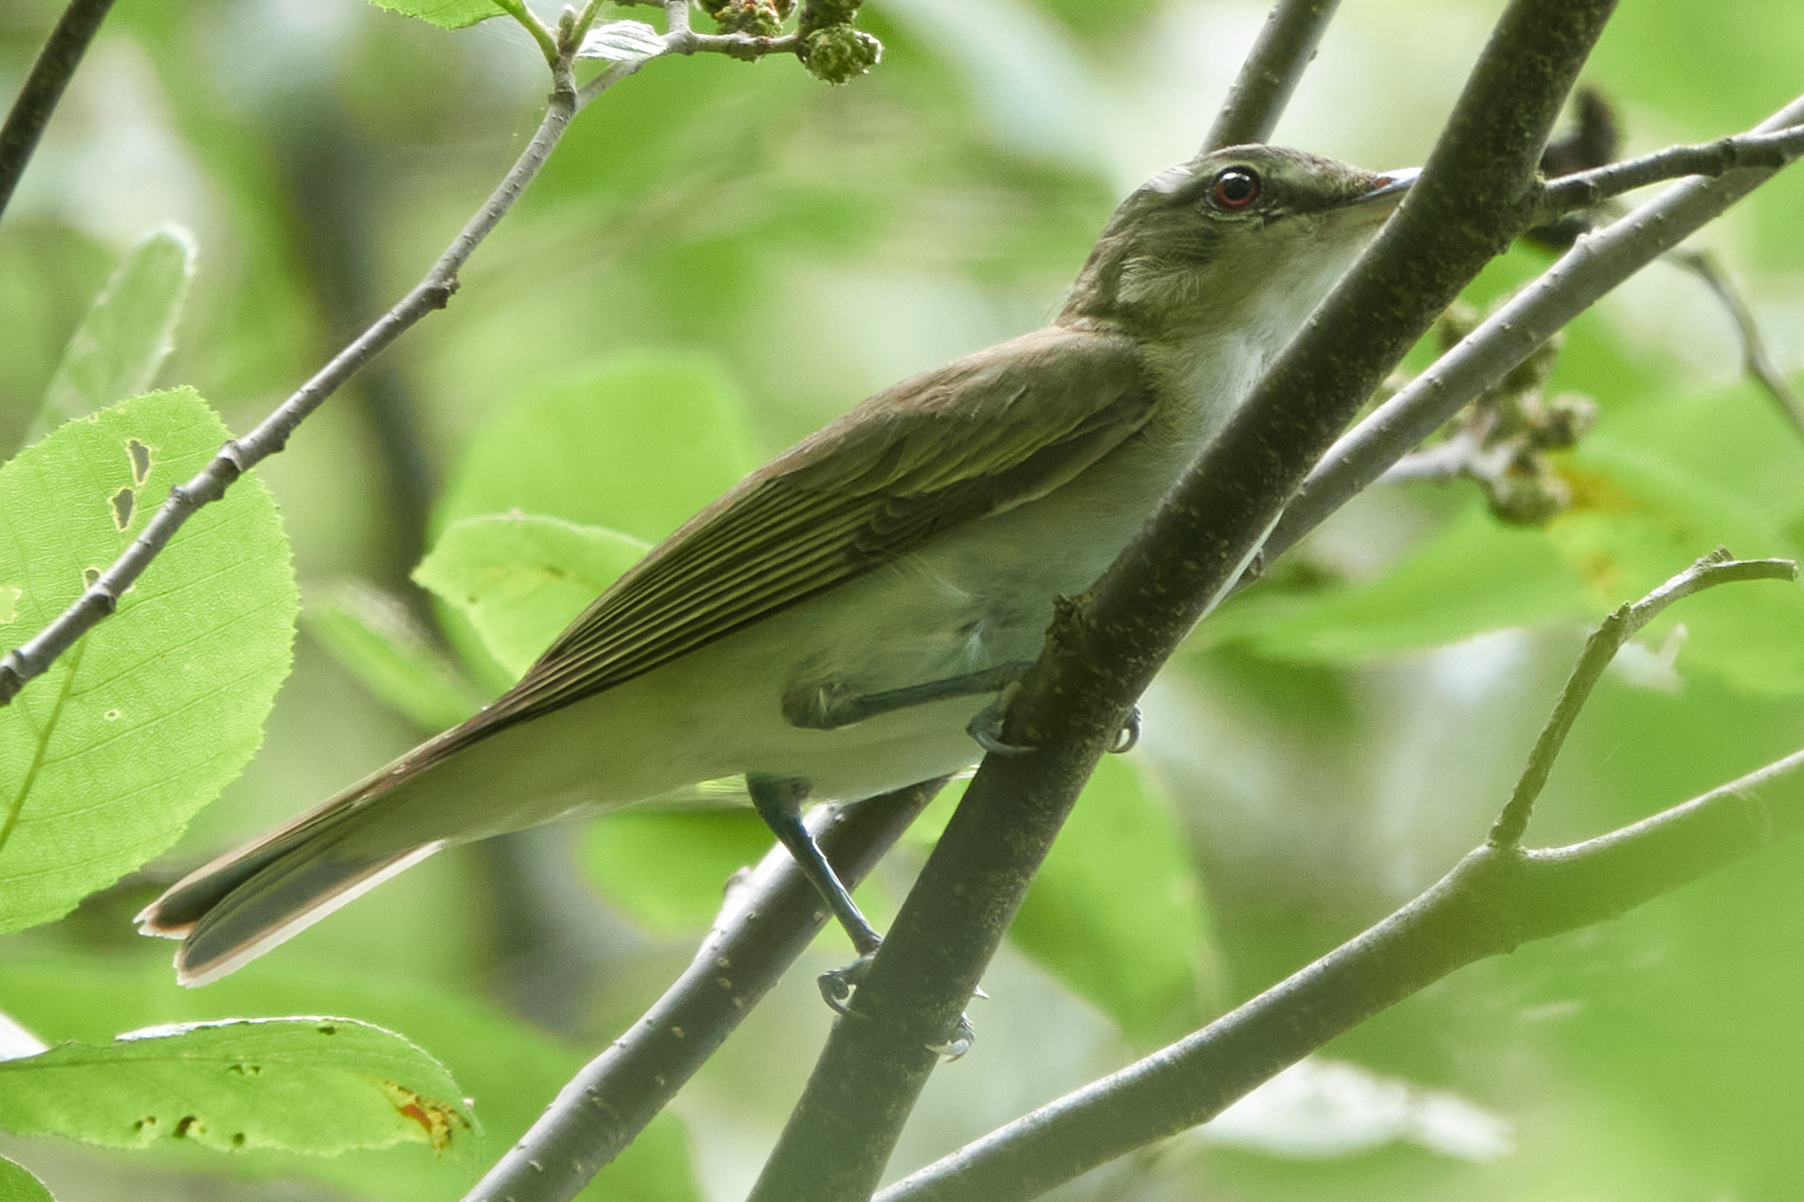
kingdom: Animalia
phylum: Chordata
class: Aves
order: Passeriformes
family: Vireonidae
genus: Vireo
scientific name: Vireo olivaceus
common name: Red-eyed vireo
